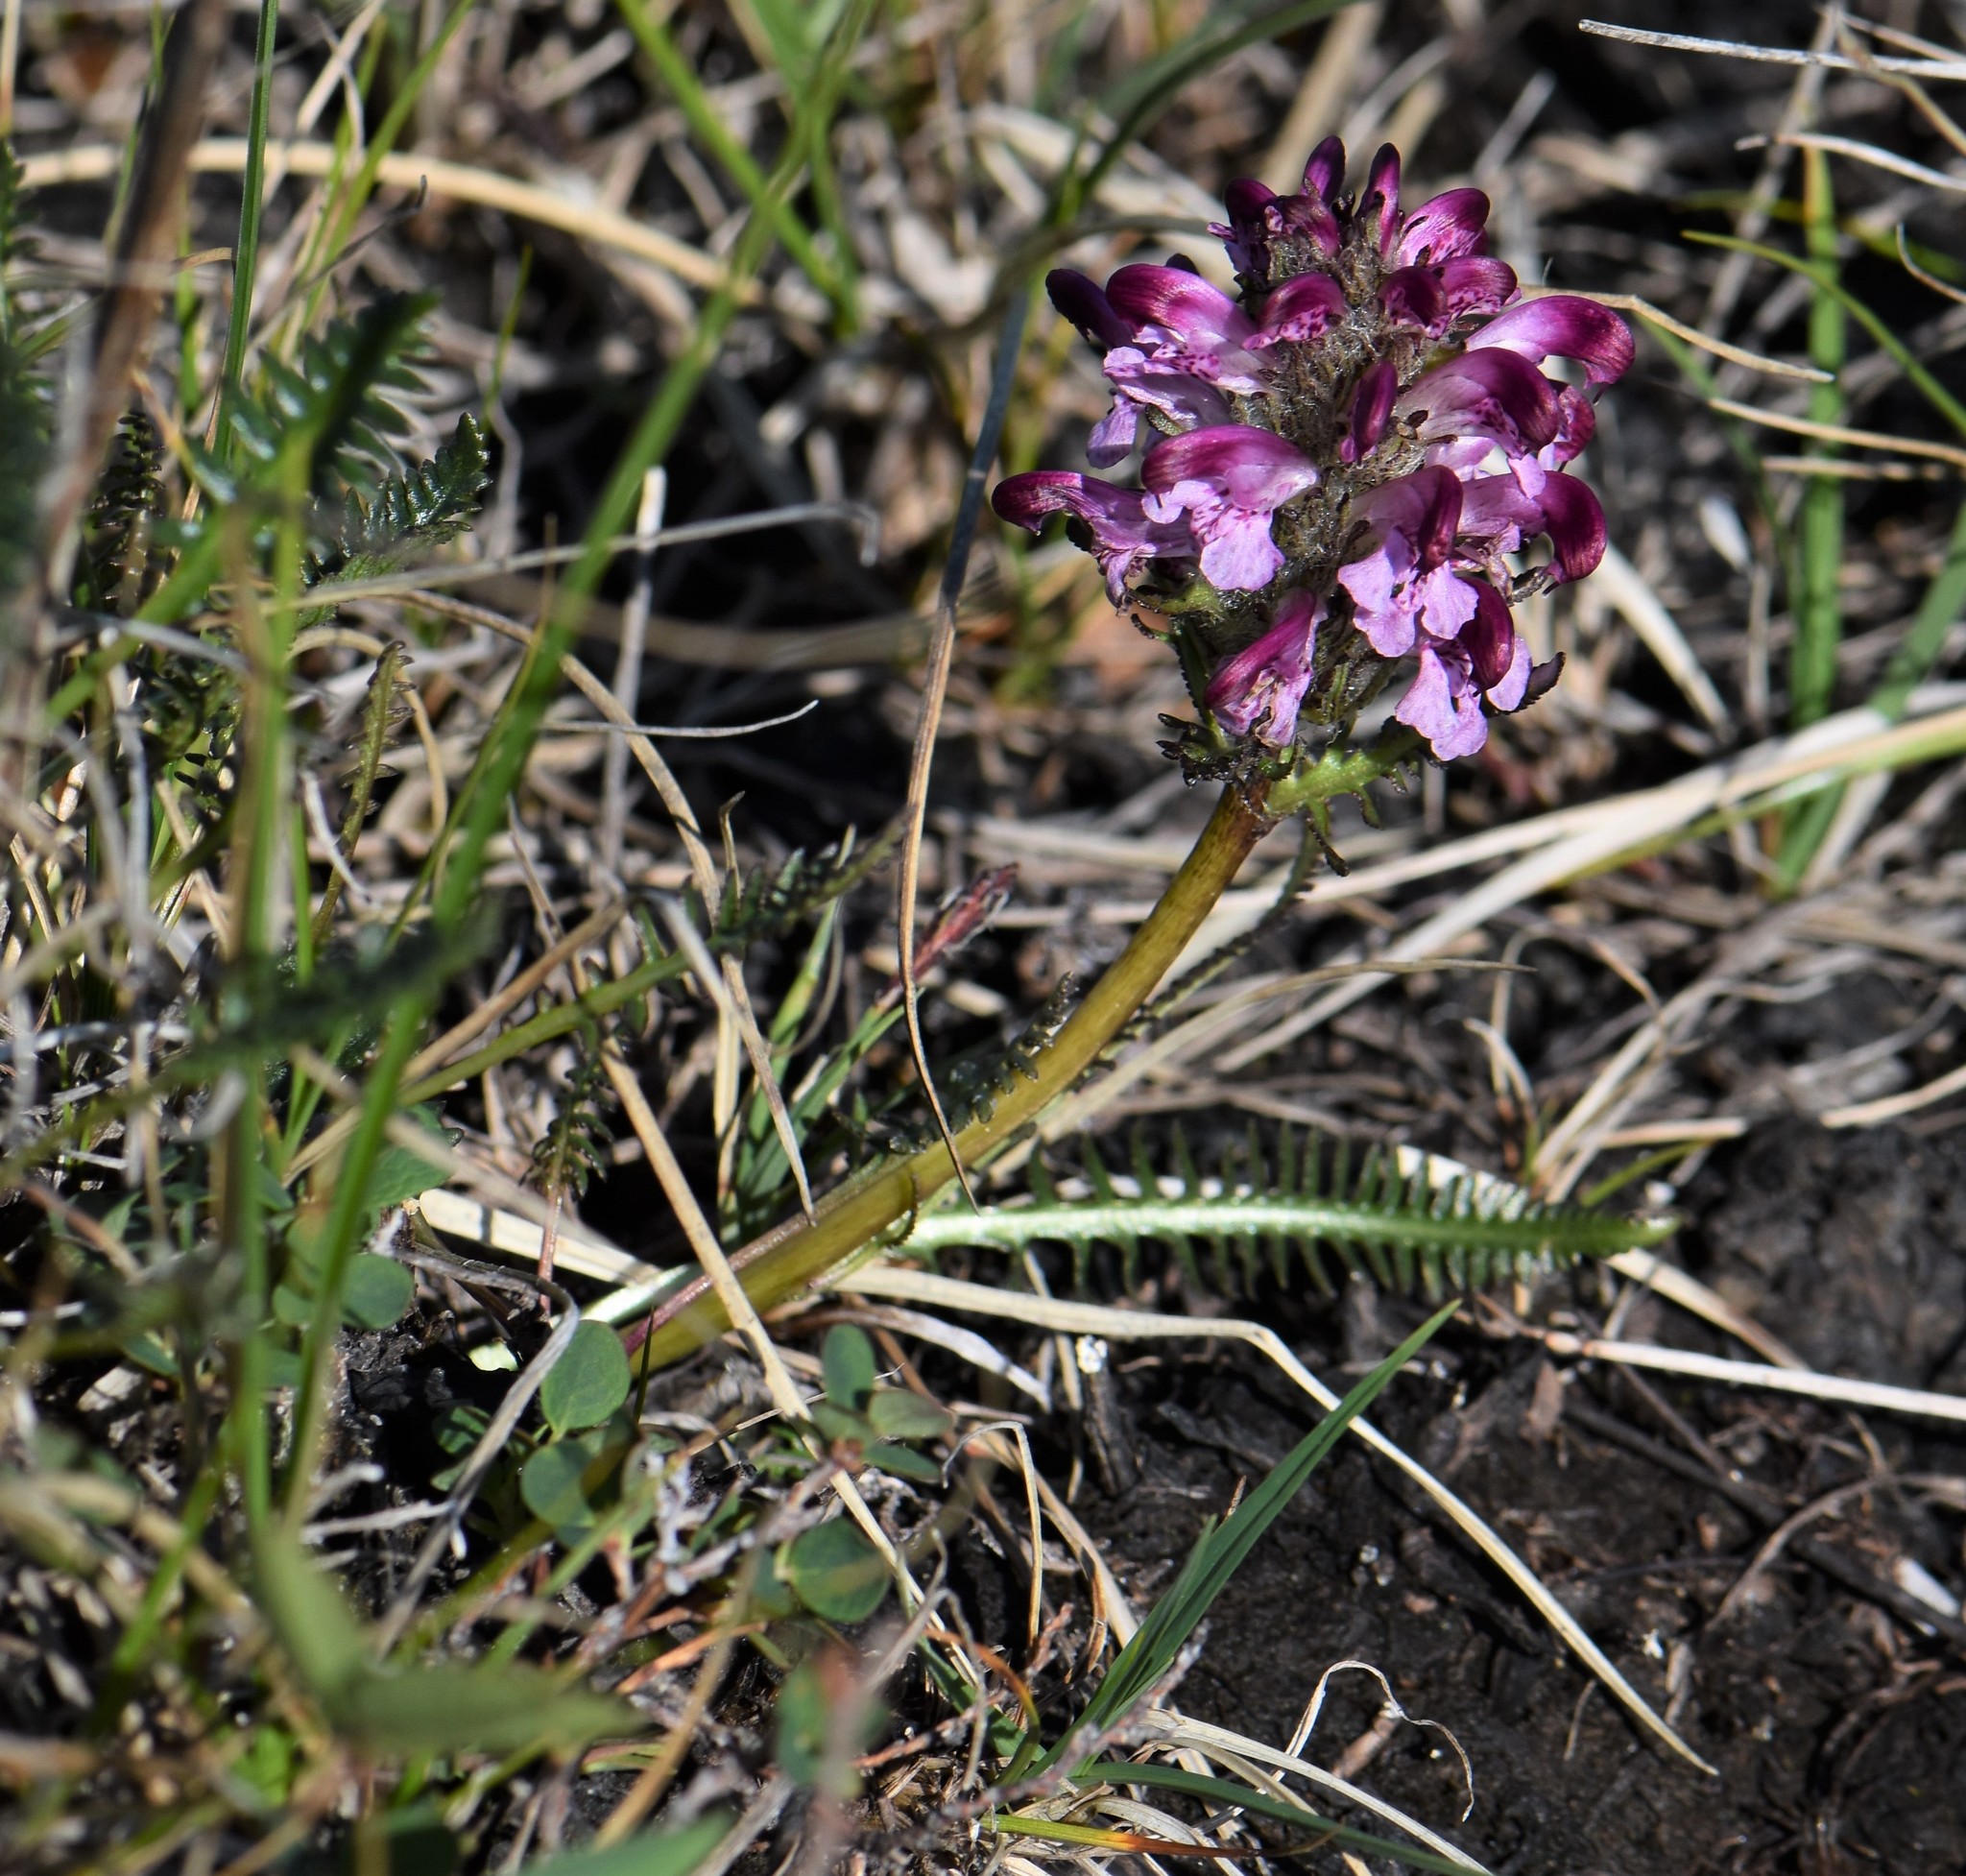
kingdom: Plantae
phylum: Tracheophyta
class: Magnoliopsida
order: Lamiales
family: Orobanchaceae
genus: Pedicularis
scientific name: Pedicularis novaiae-zemliae
